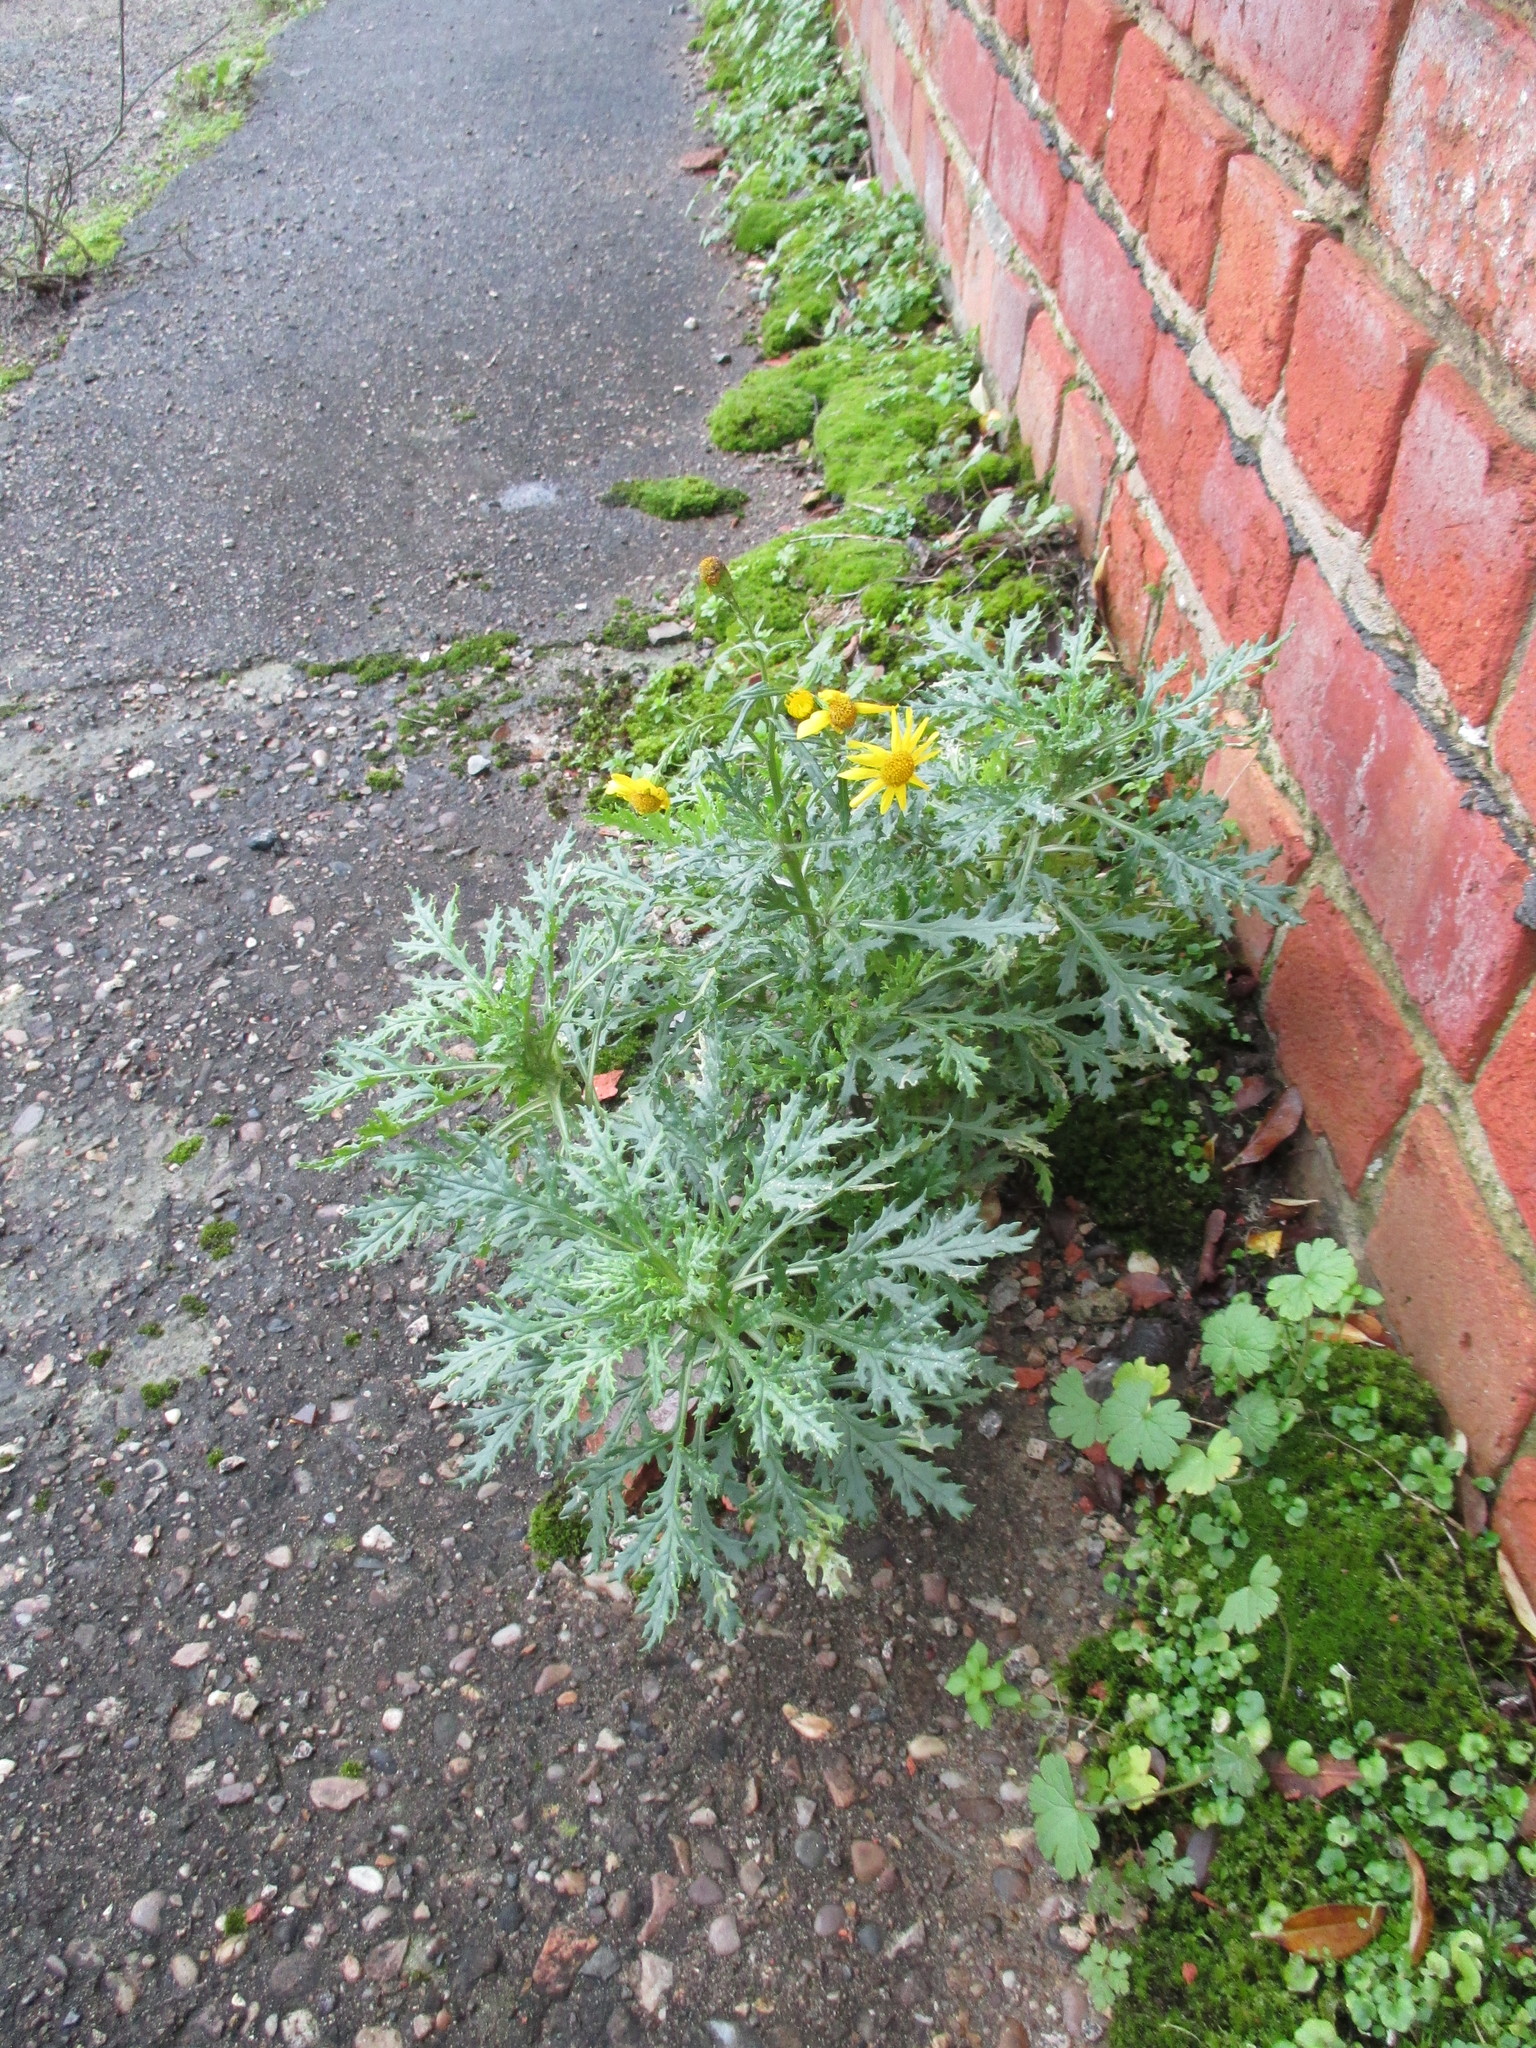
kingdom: Plantae
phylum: Tracheophyta
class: Magnoliopsida
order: Asterales
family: Asteraceae
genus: Senecio
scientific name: Senecio squalidus
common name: Oxford ragwort
